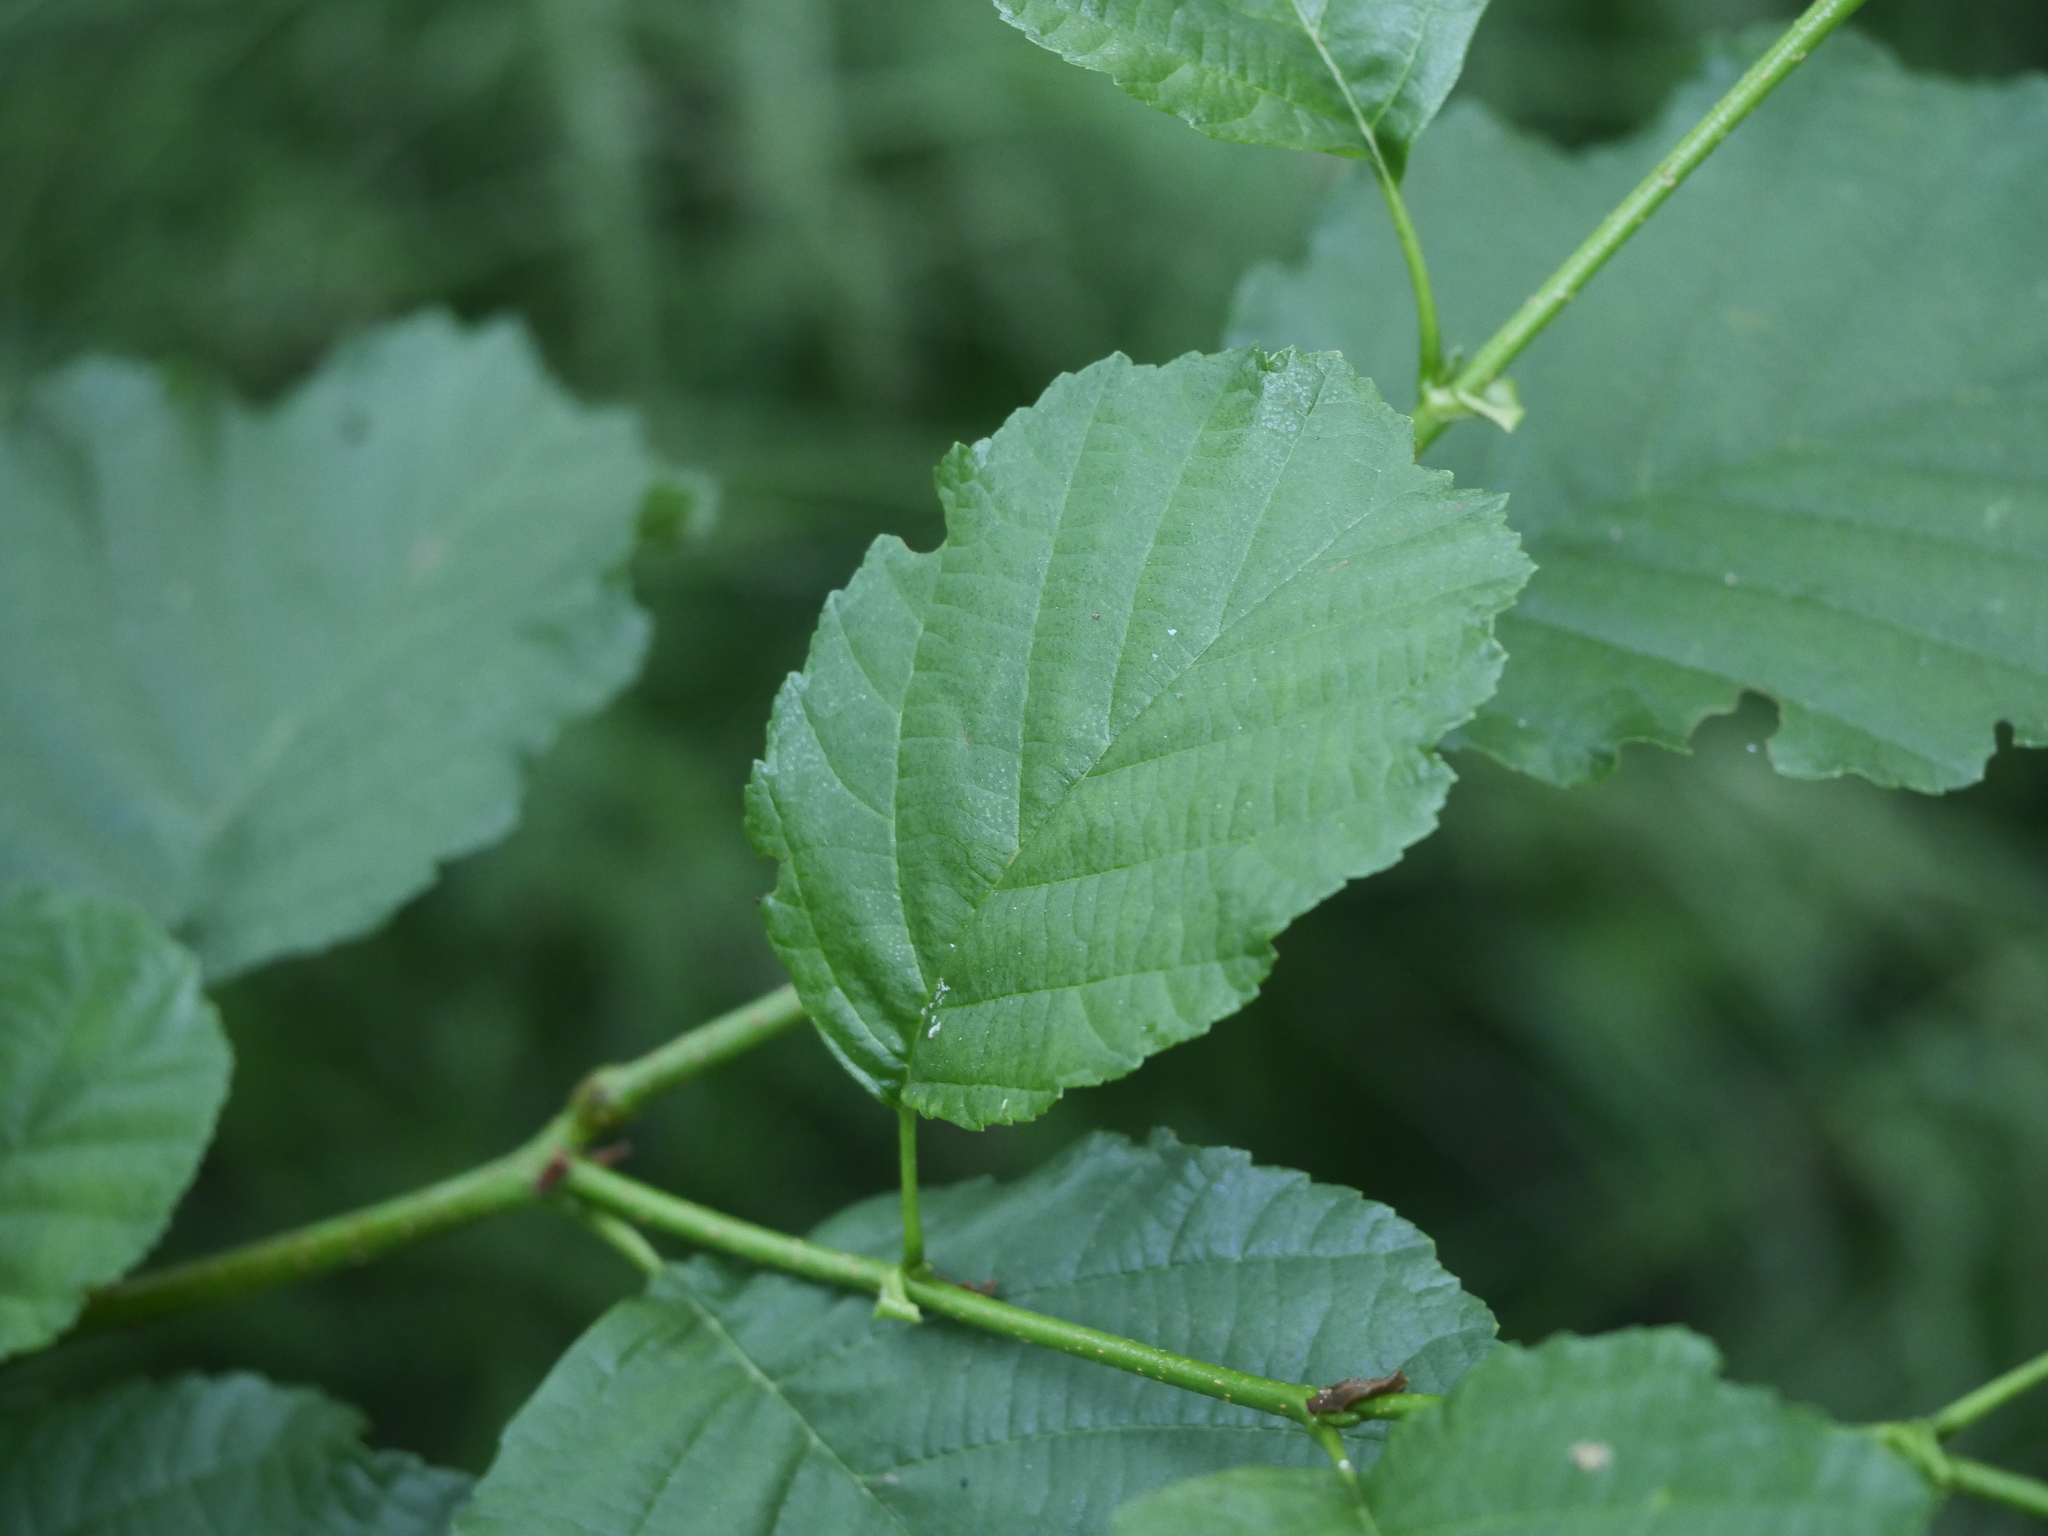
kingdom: Plantae
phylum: Tracheophyta
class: Magnoliopsida
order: Fagales
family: Betulaceae
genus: Alnus
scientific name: Alnus glutinosa
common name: Black alder
